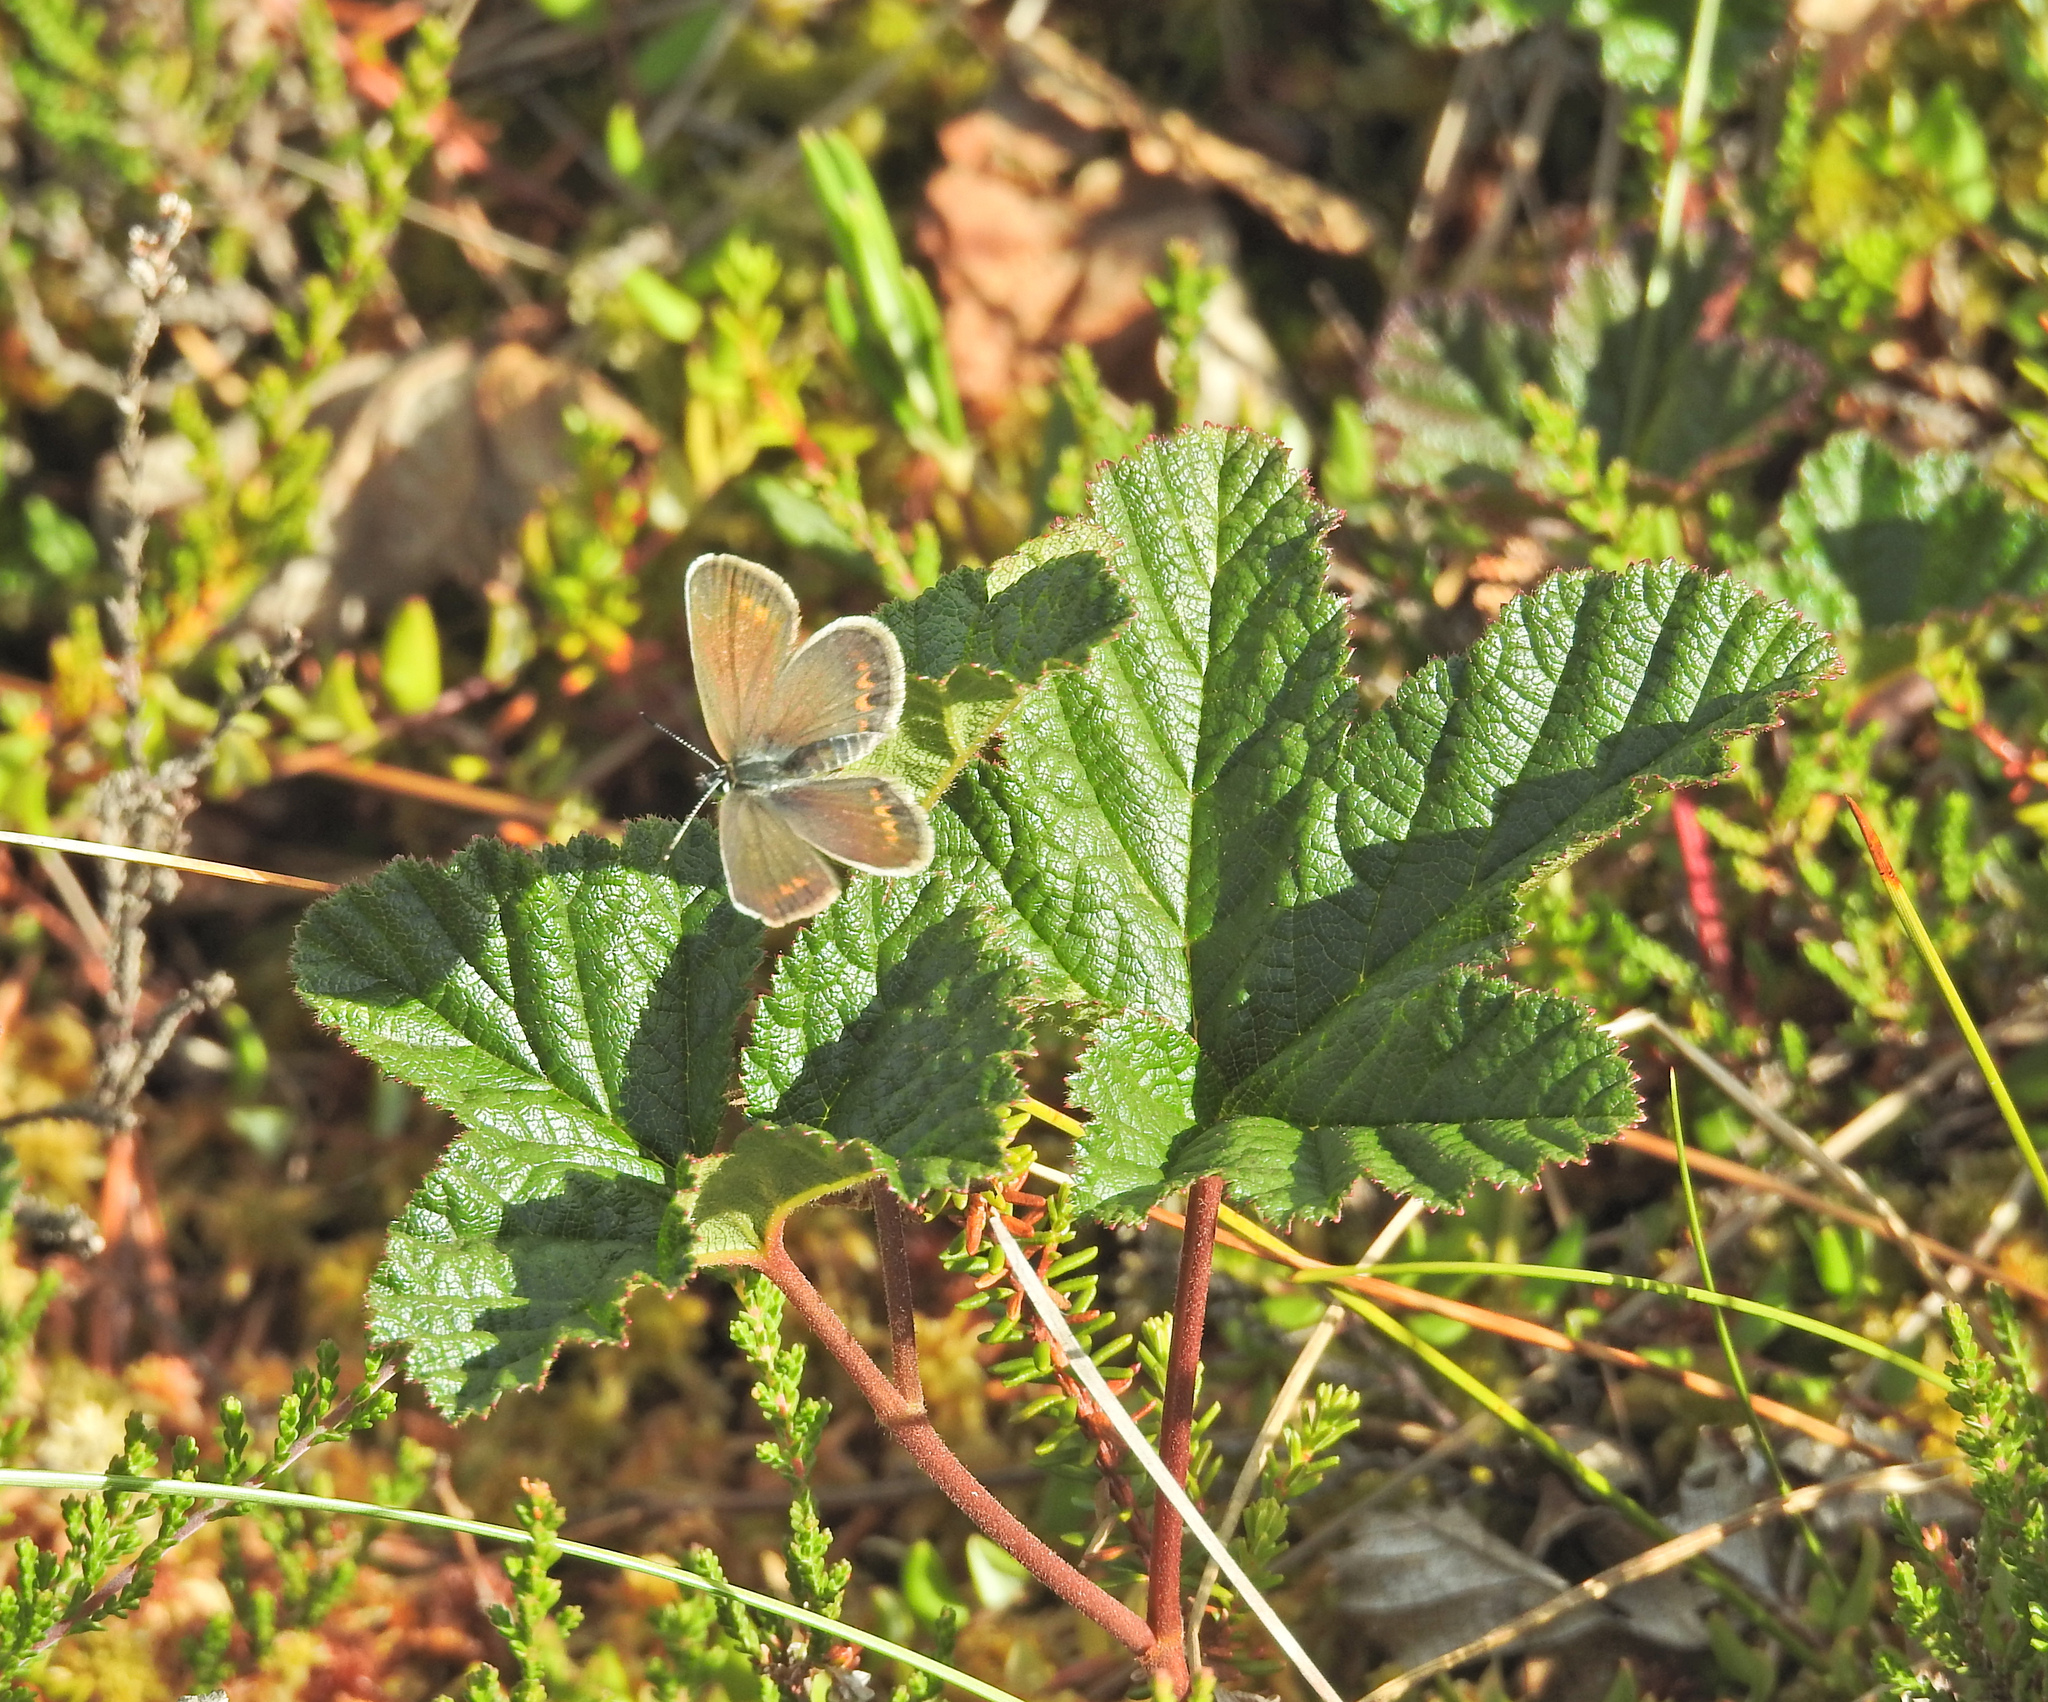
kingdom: Plantae
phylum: Tracheophyta
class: Magnoliopsida
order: Rosales
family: Rosaceae
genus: Rubus
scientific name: Rubus chamaemorus
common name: Cloudberry
